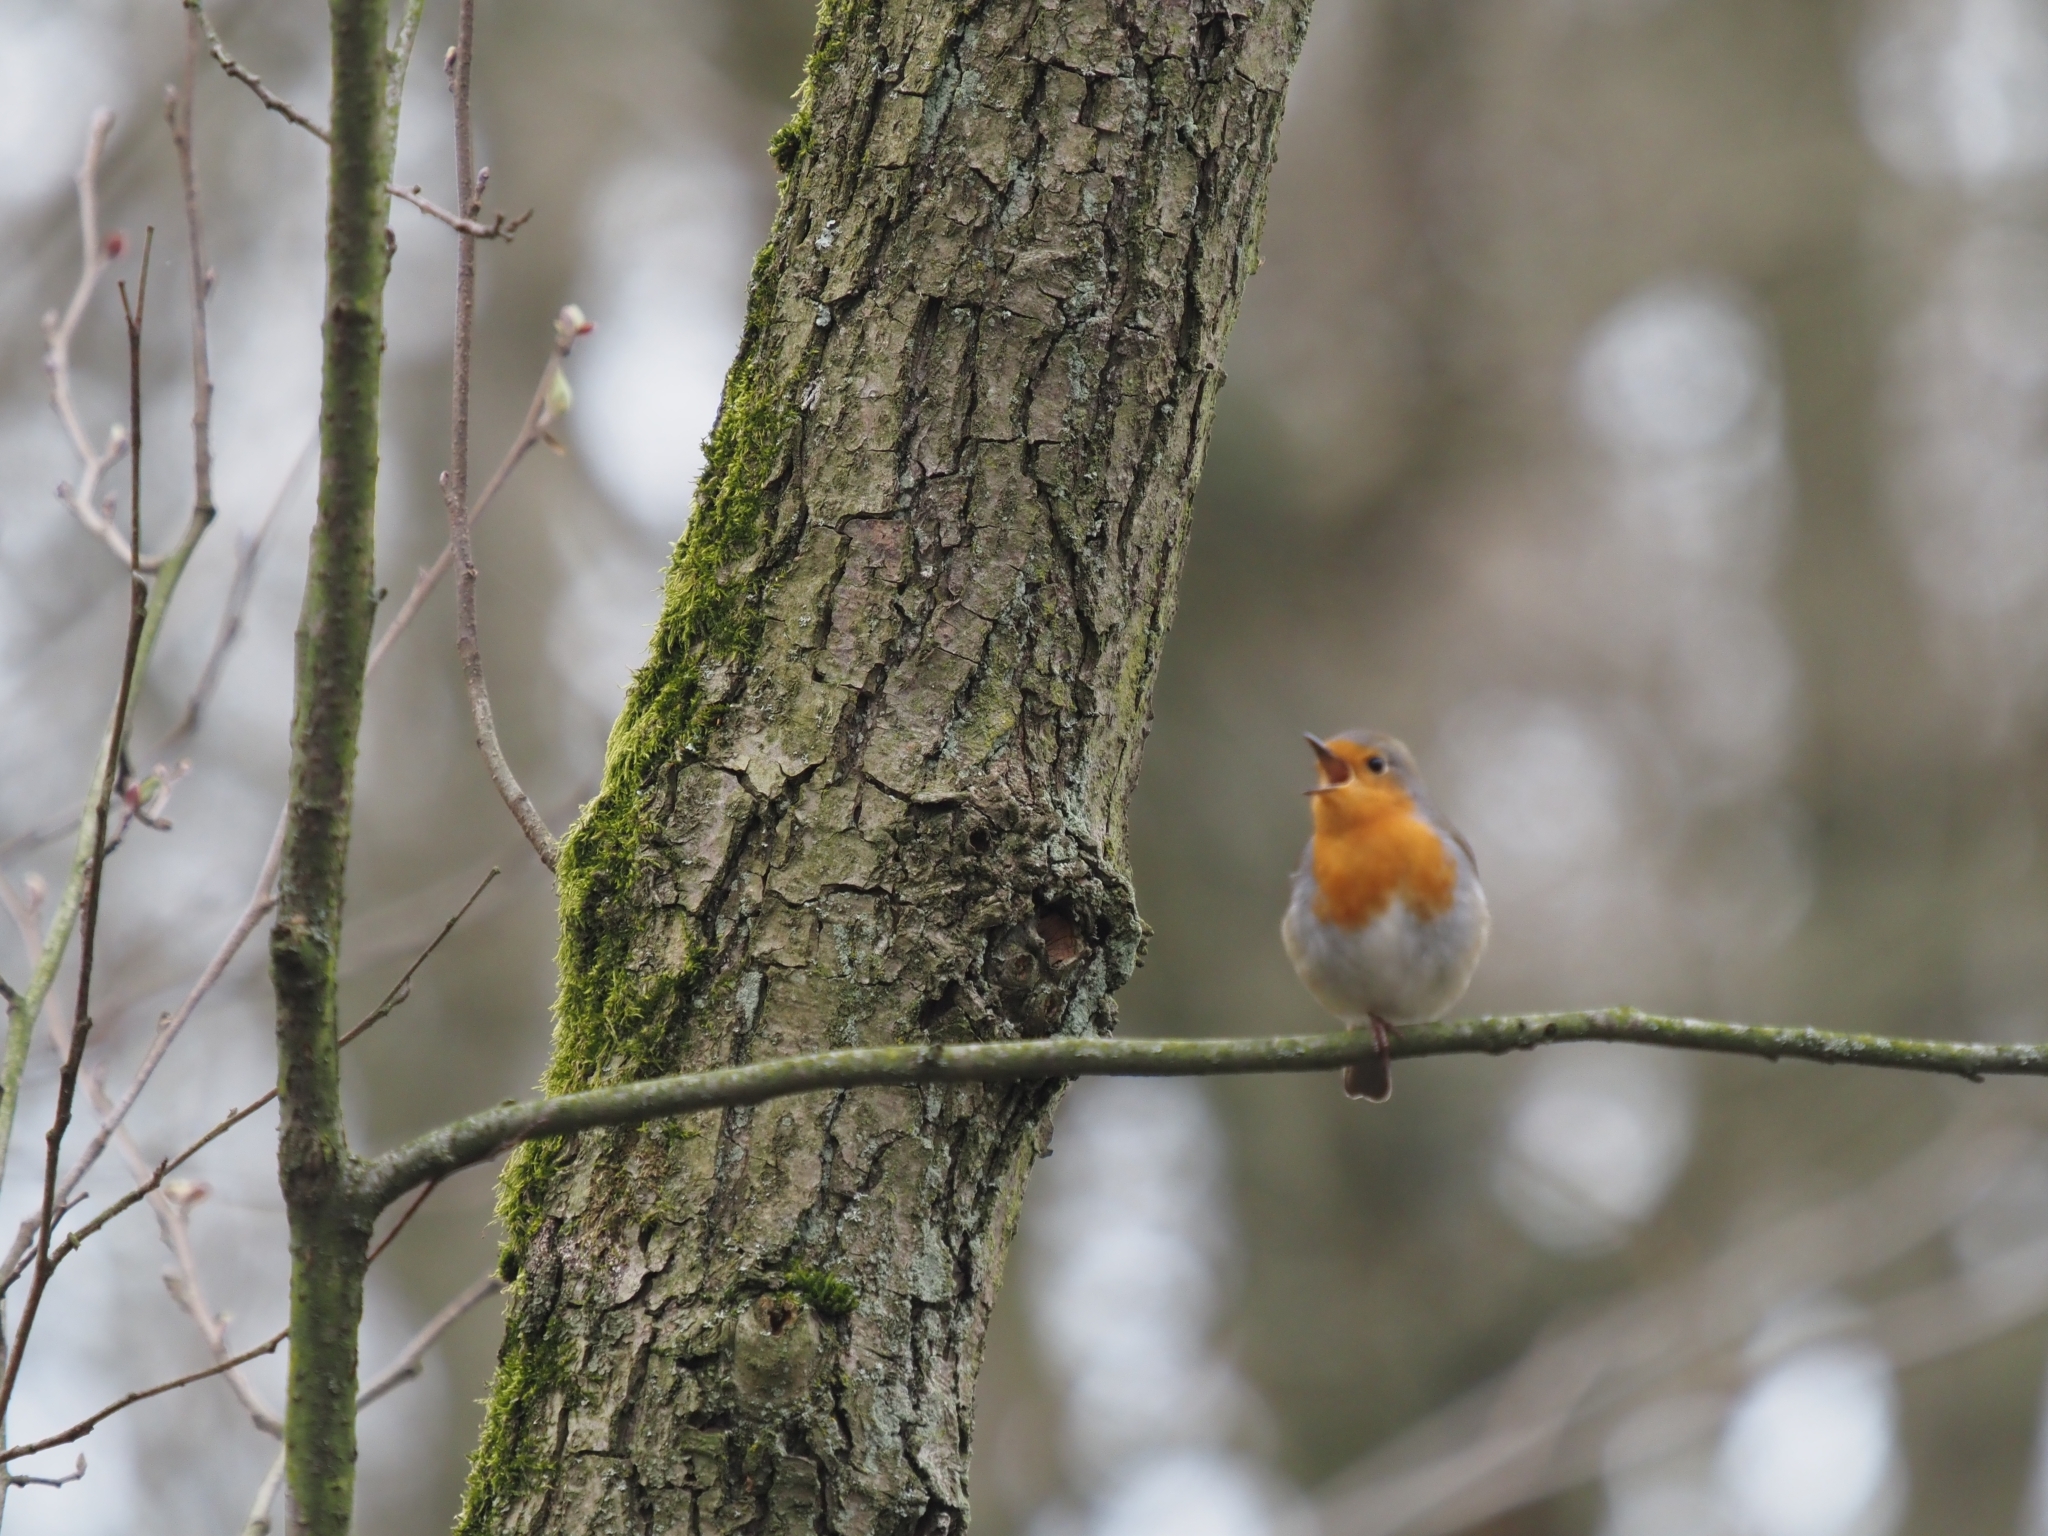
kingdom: Animalia
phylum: Chordata
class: Aves
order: Passeriformes
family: Muscicapidae
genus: Erithacus
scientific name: Erithacus rubecula
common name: European robin
